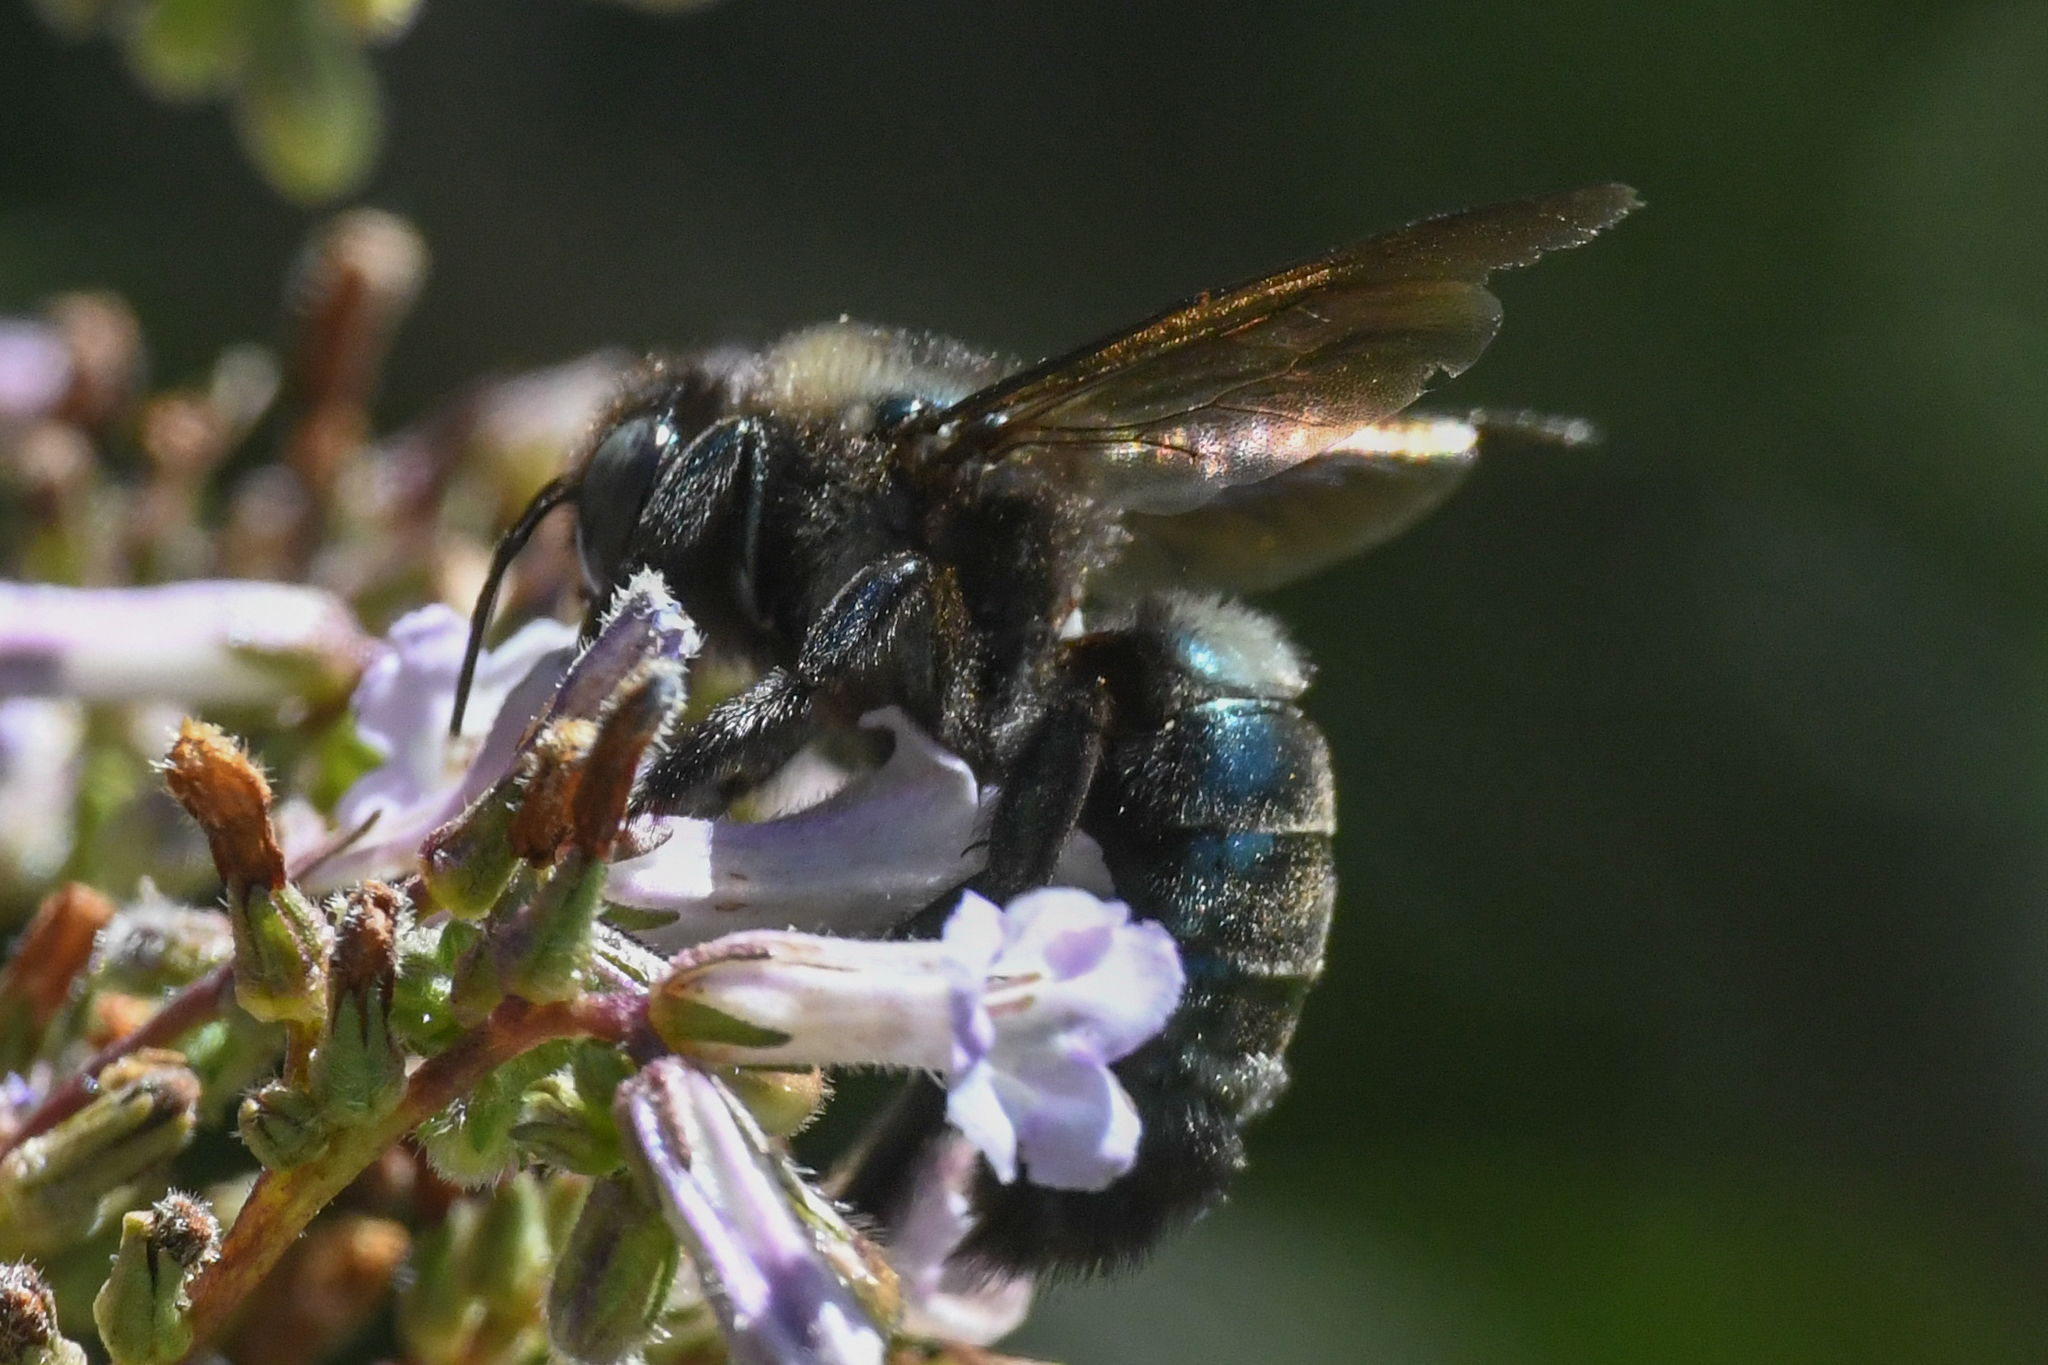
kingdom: Animalia
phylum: Arthropoda
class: Insecta
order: Hymenoptera
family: Apidae
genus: Xylocopa
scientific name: Xylocopa tabaniformis
